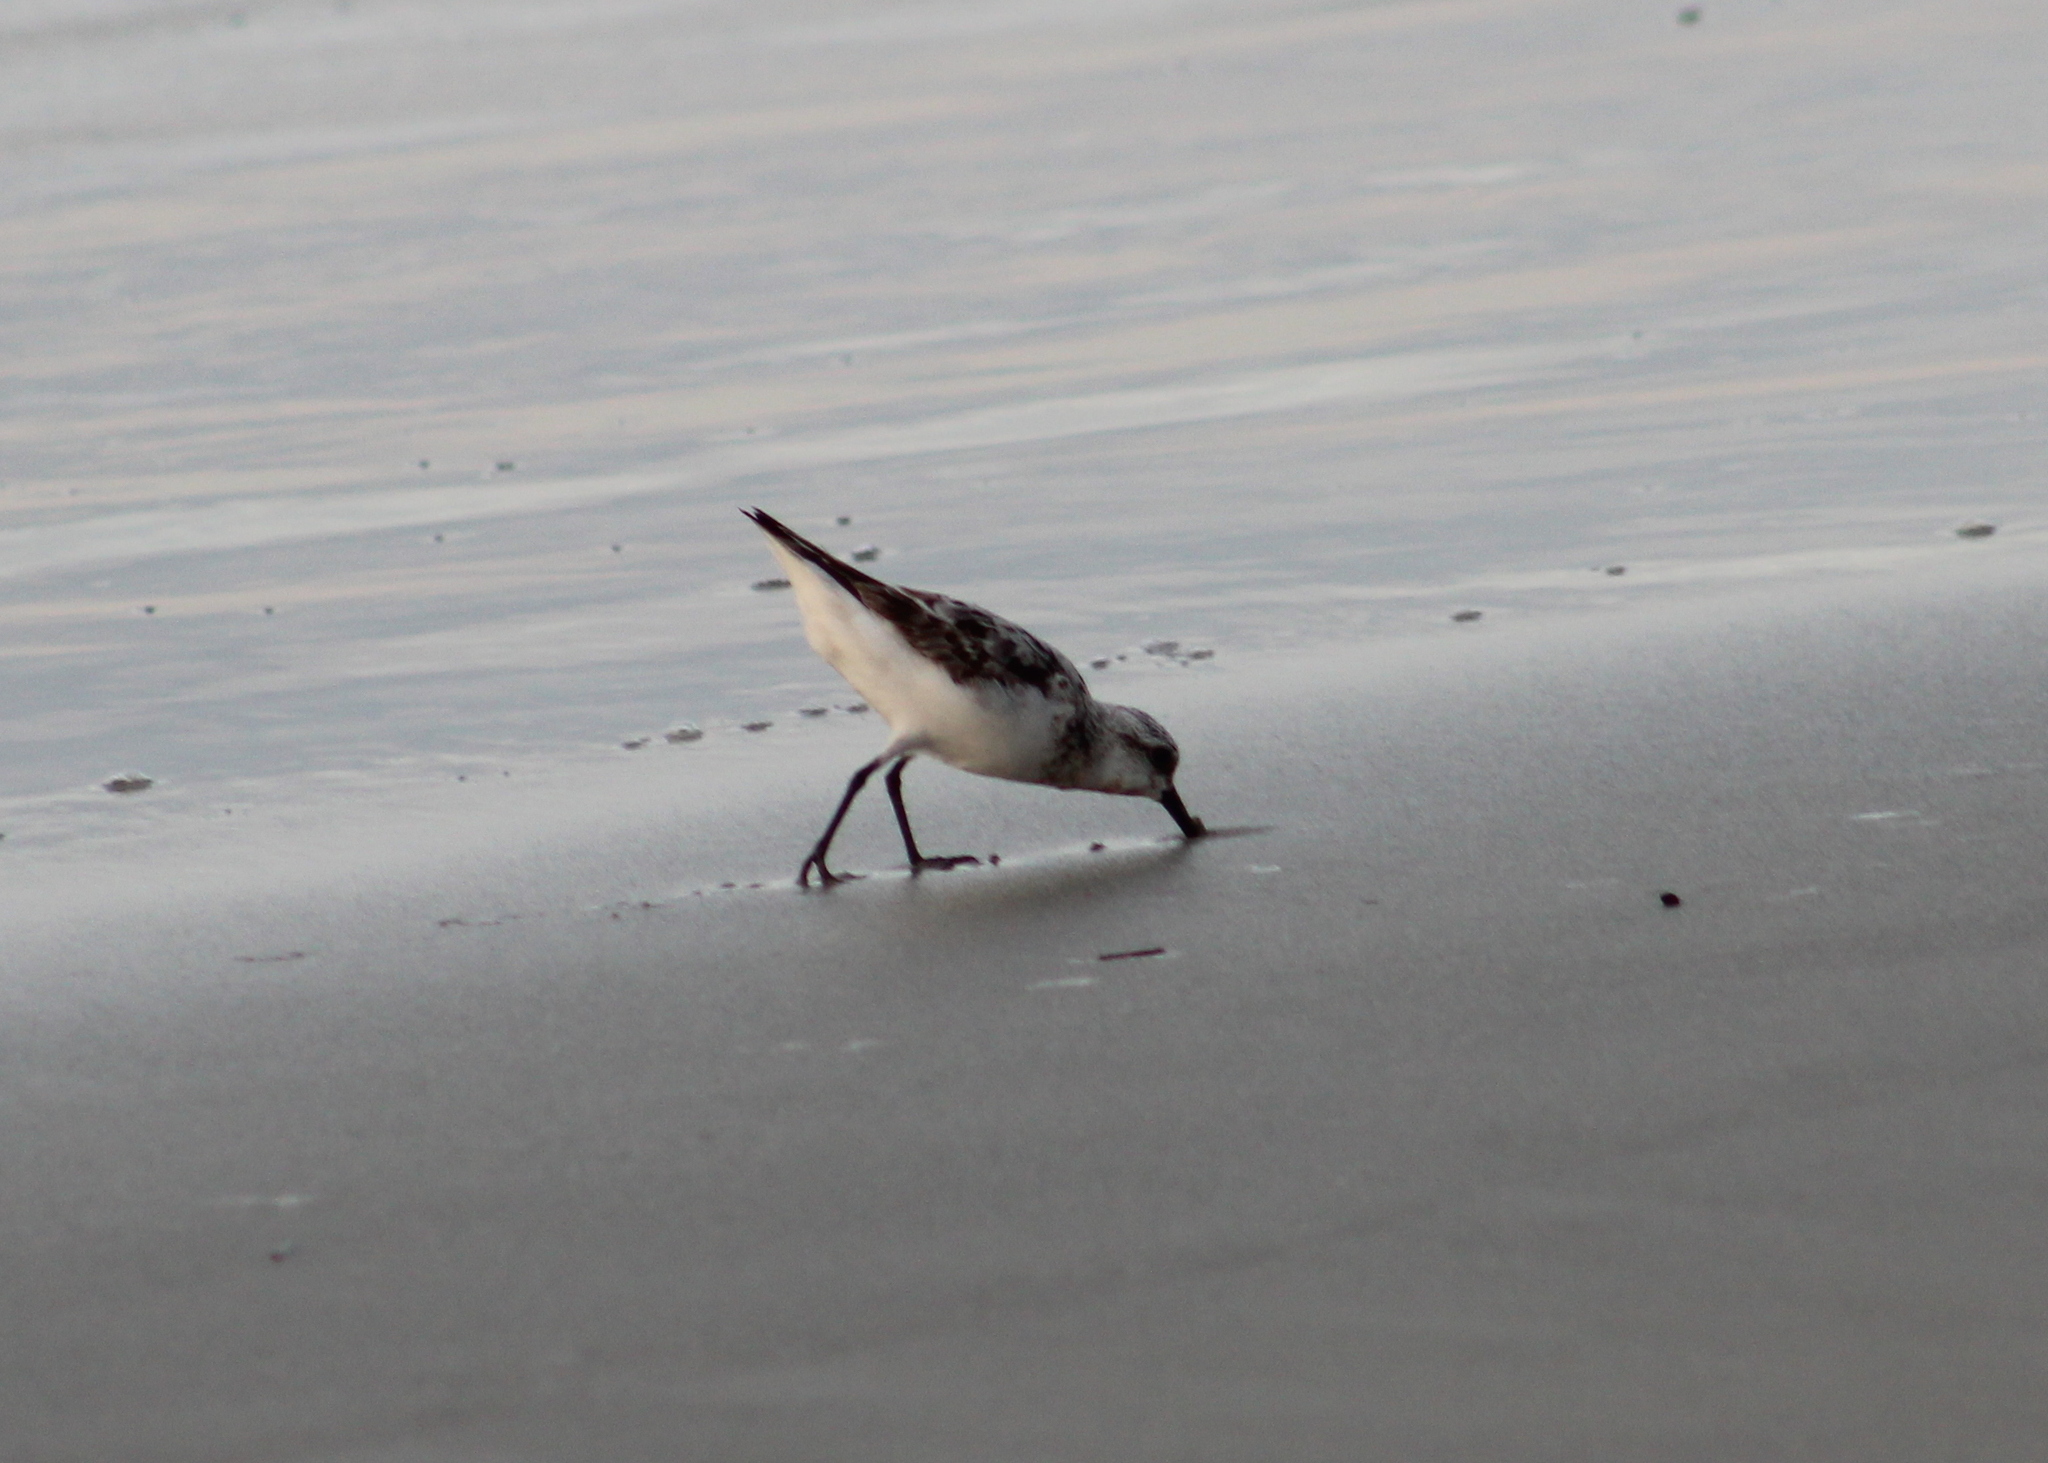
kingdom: Animalia
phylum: Chordata
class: Aves
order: Charadriiformes
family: Scolopacidae
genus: Calidris
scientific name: Calidris alba
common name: Sanderling
